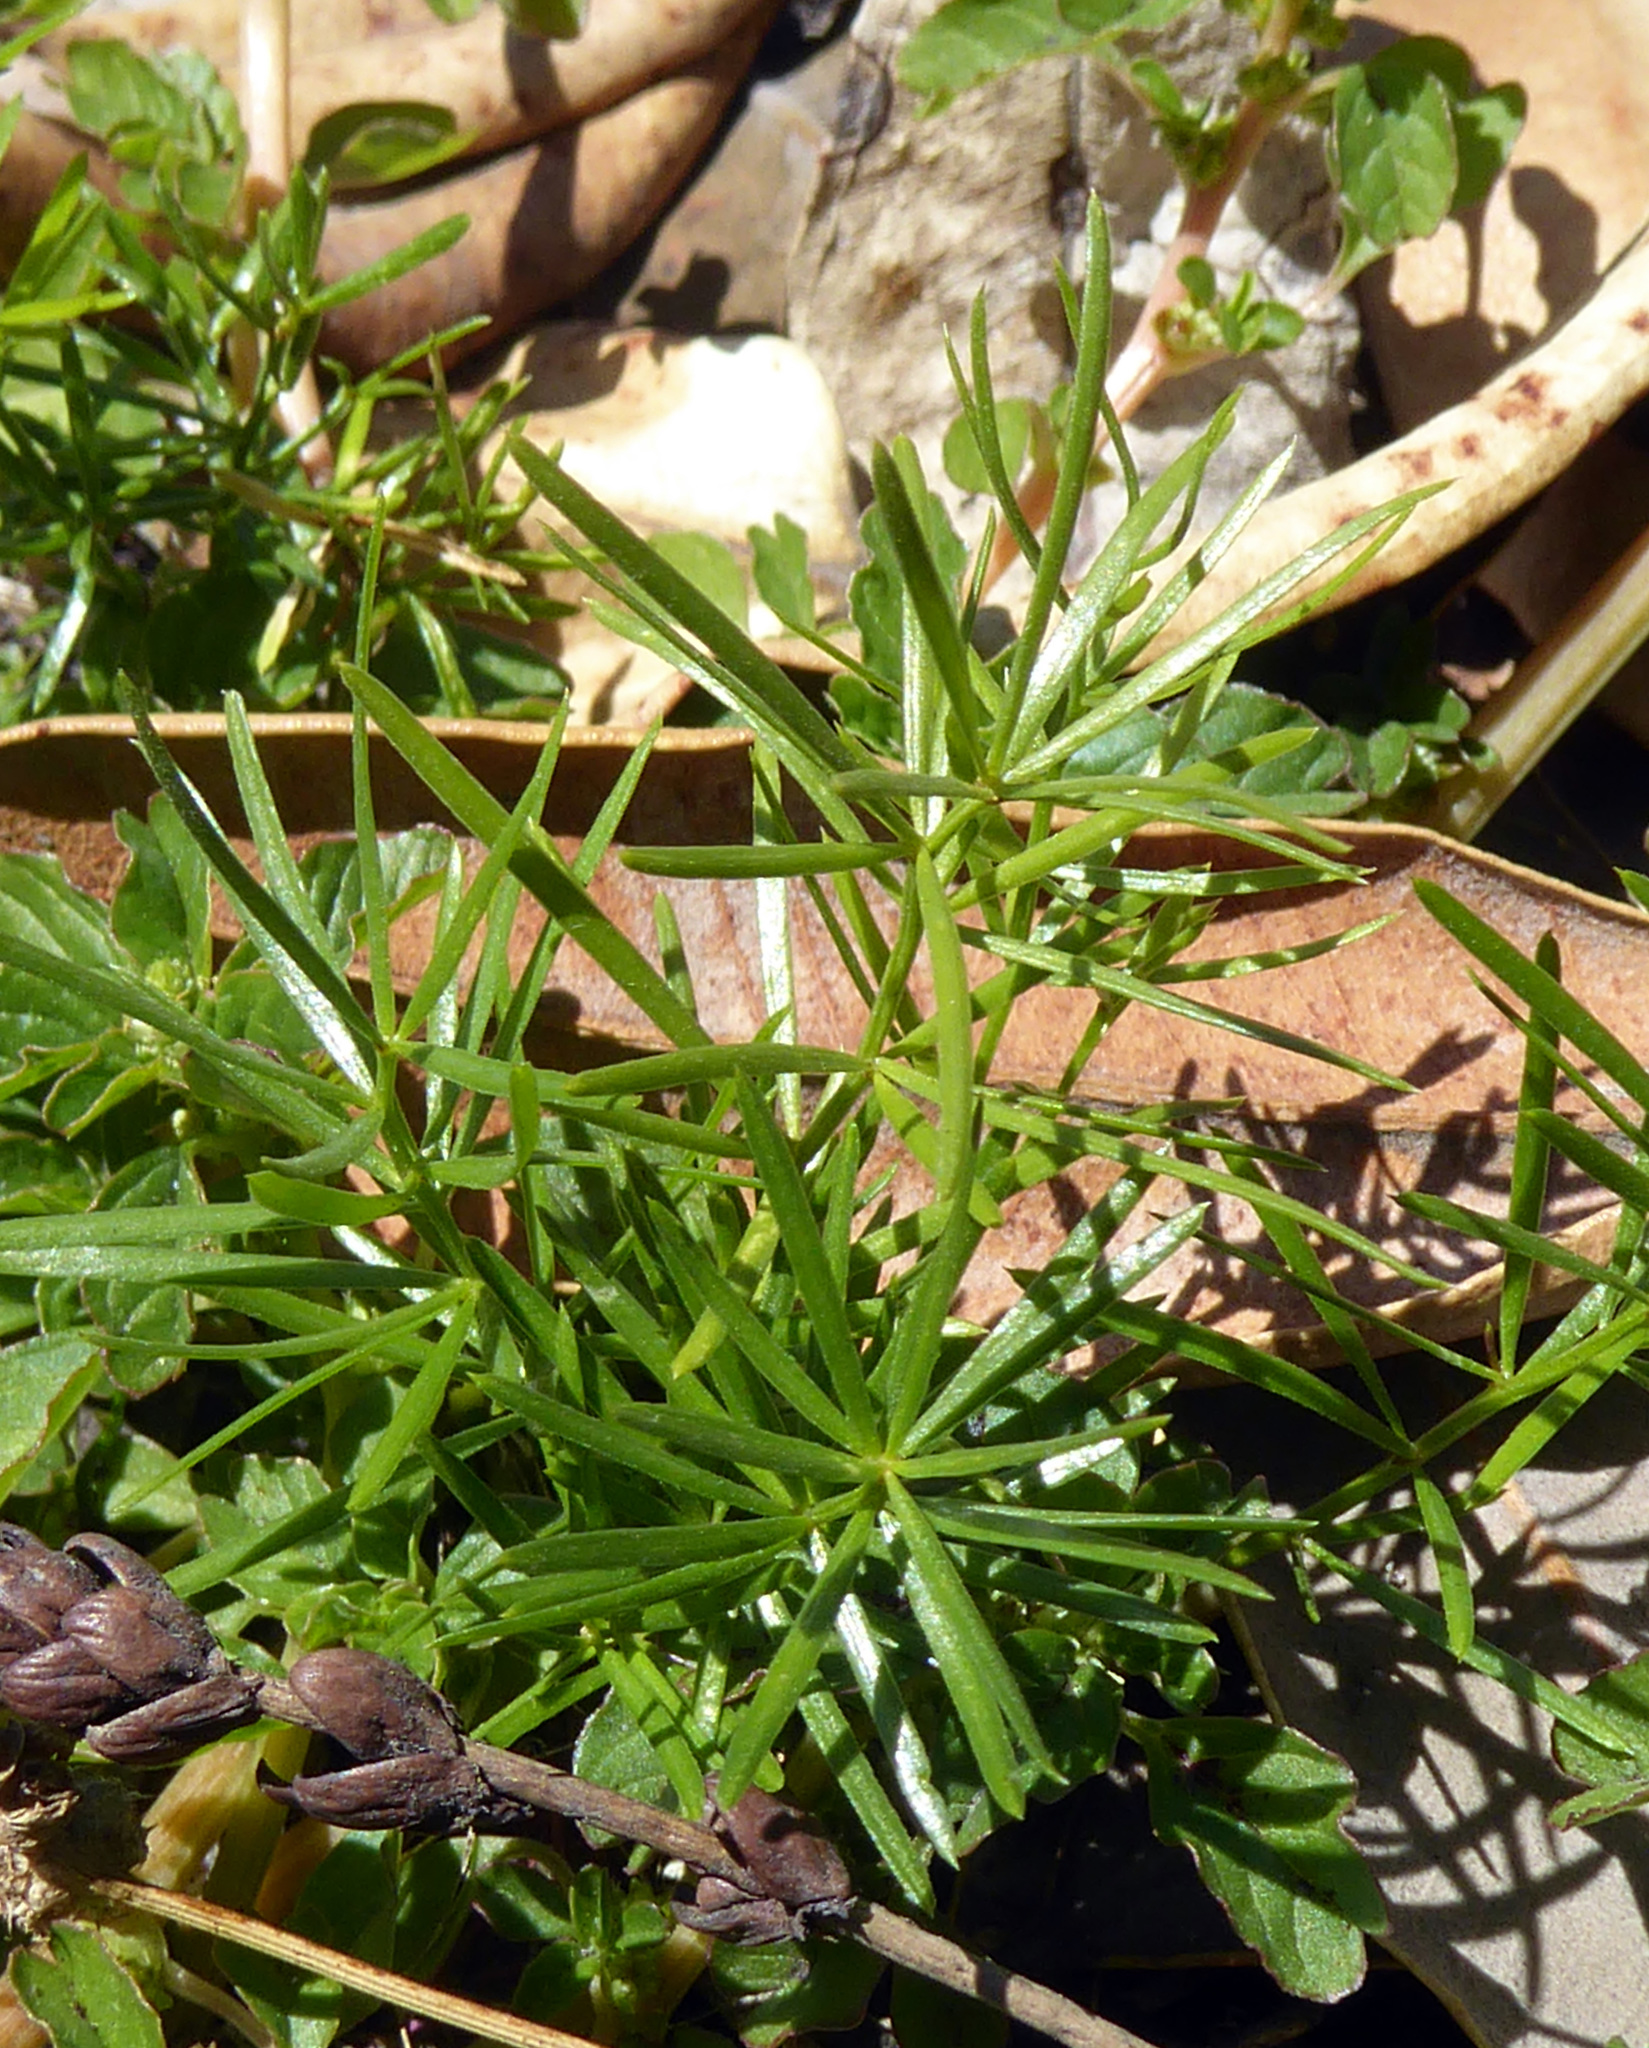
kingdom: Plantae
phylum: Tracheophyta
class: Liliopsida
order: Asparagales
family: Asparagaceae
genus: Asparagus
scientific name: Asparagus aethiopicus
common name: Sprenger's asparagus fern
